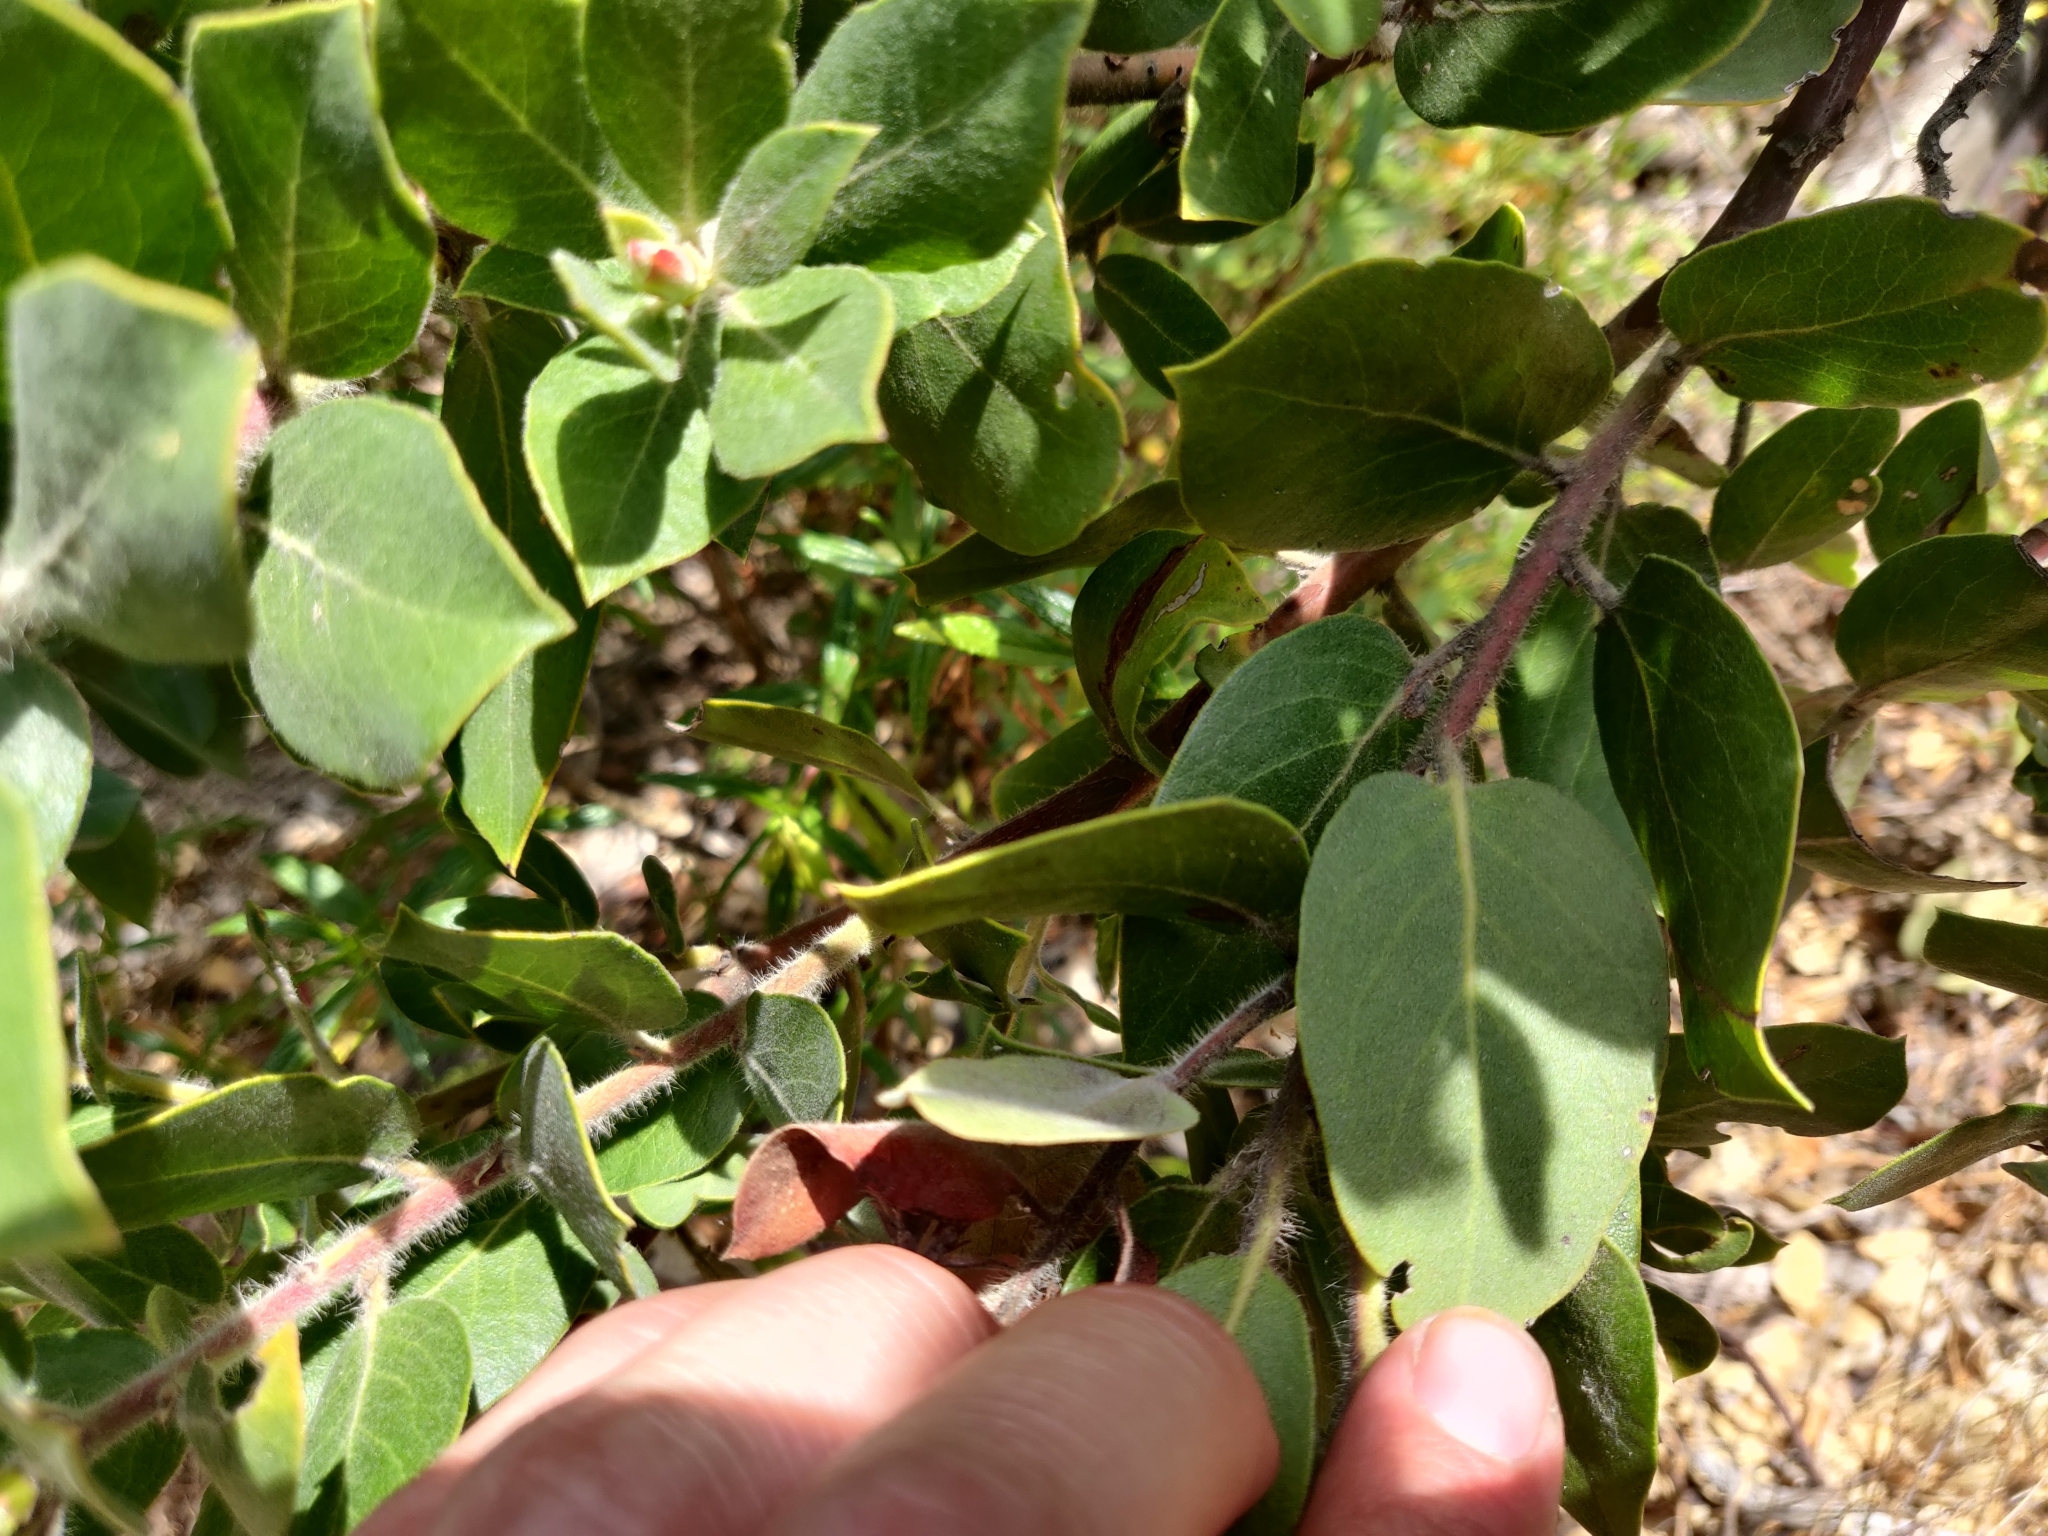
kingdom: Plantae
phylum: Tracheophyta
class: Magnoliopsida
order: Ericales
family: Ericaceae
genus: Arctostaphylos
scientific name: Arctostaphylos crustacea
